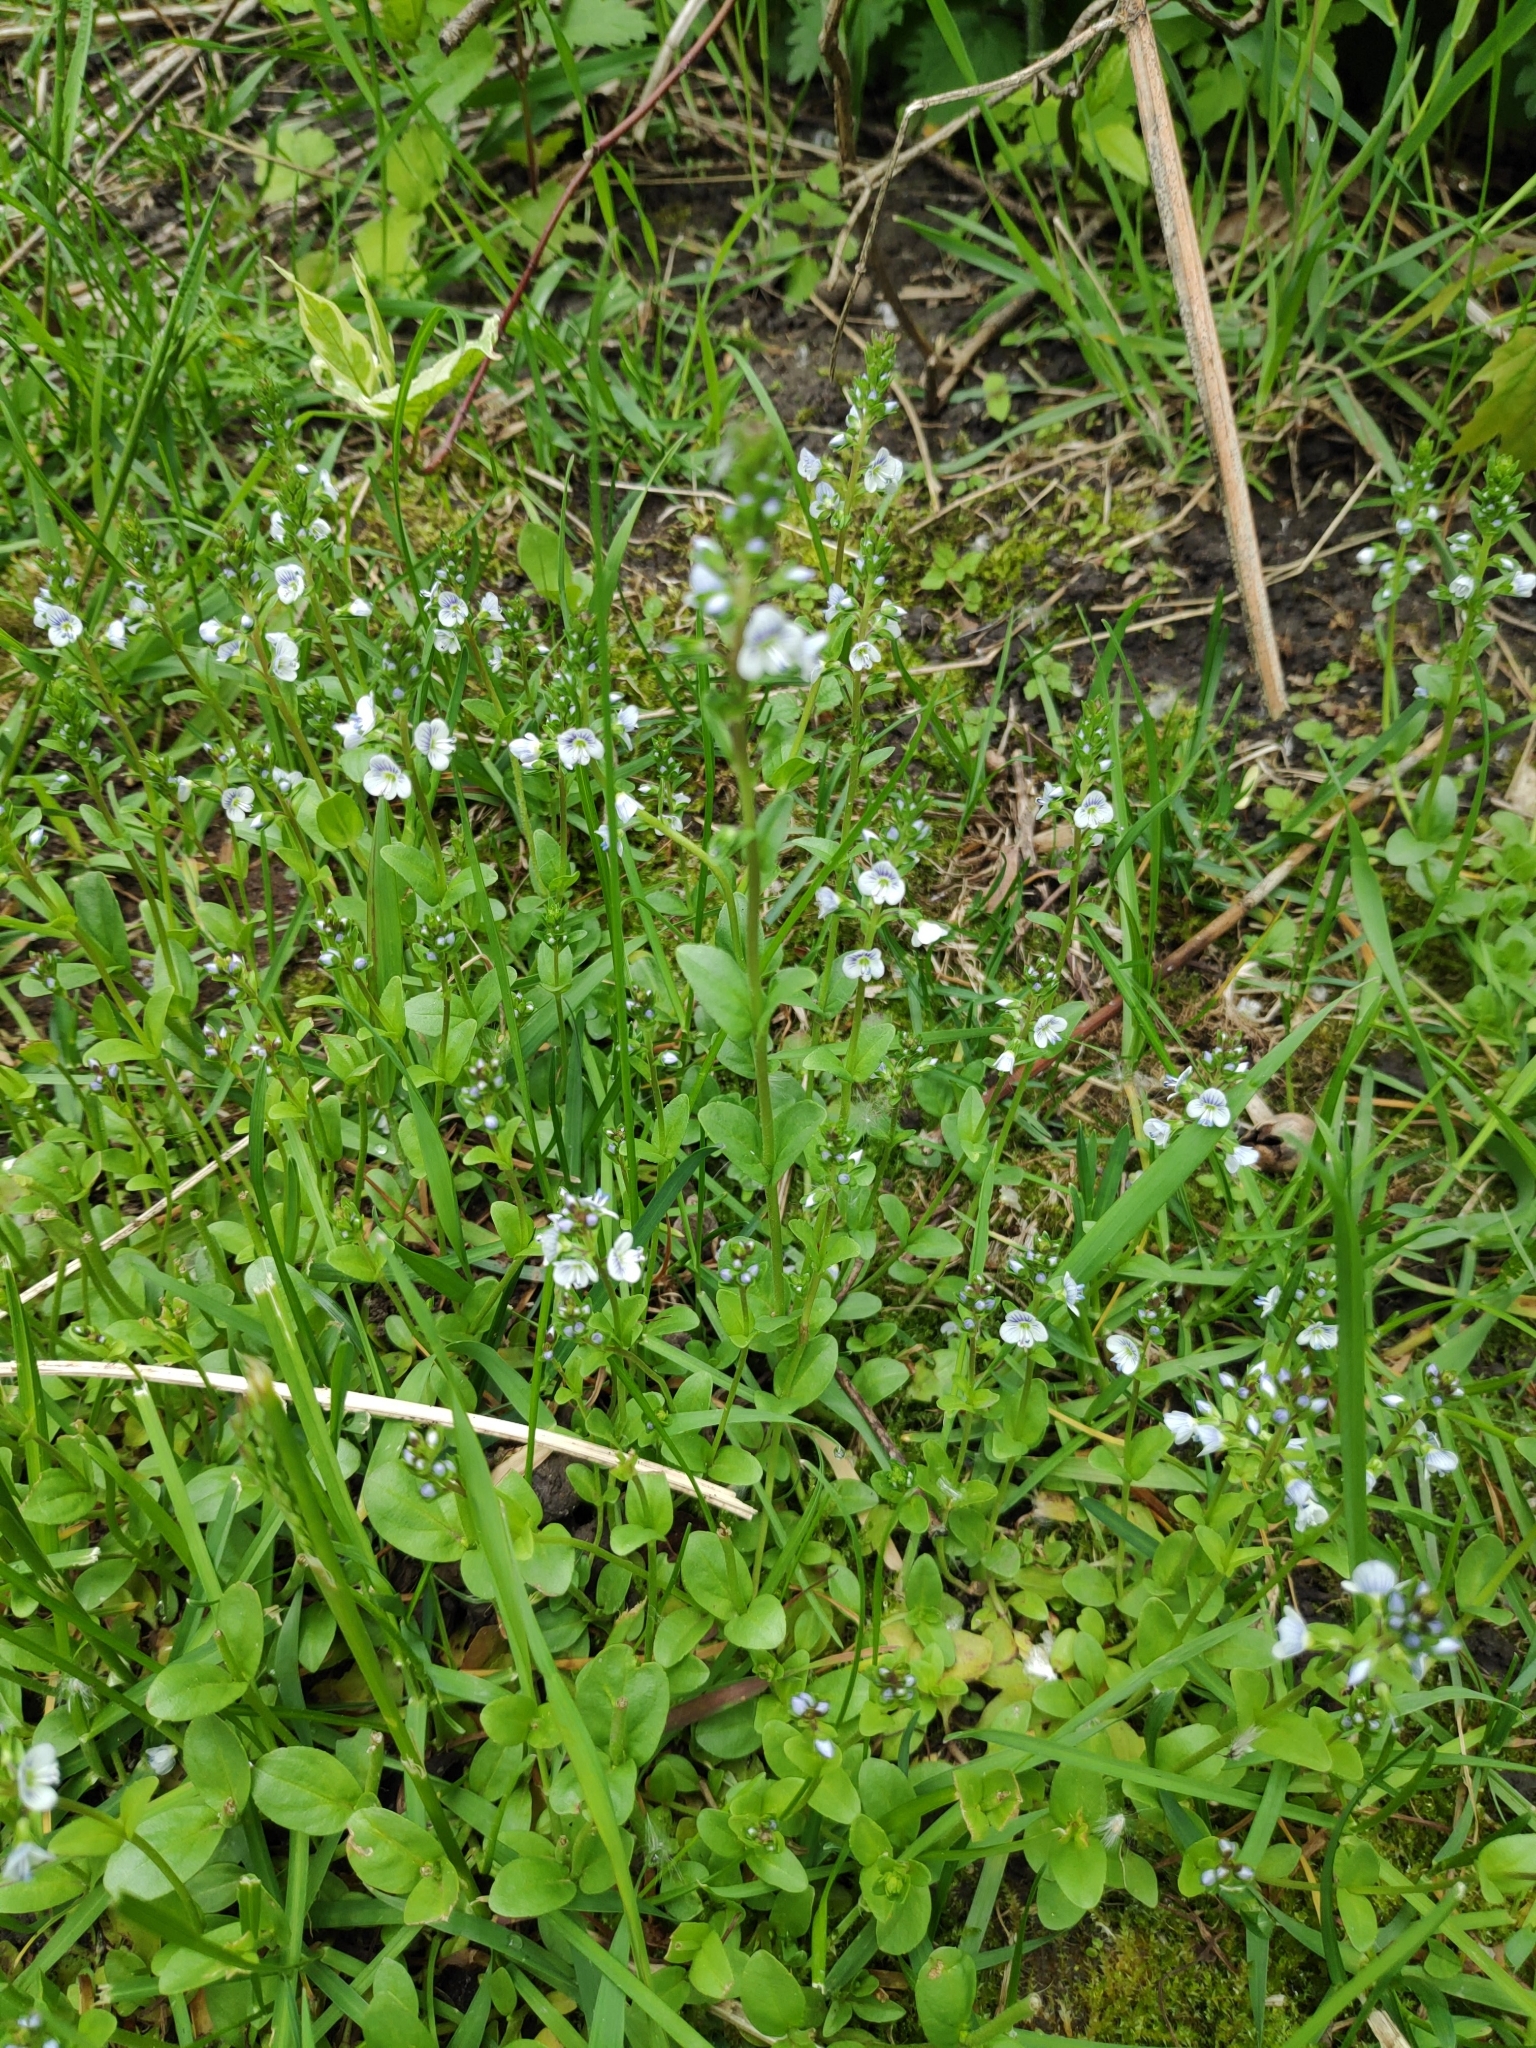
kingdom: Plantae
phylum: Tracheophyta
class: Magnoliopsida
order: Lamiales
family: Plantaginaceae
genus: Veronica
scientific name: Veronica serpyllifolia
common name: Thyme-leaved speedwell
